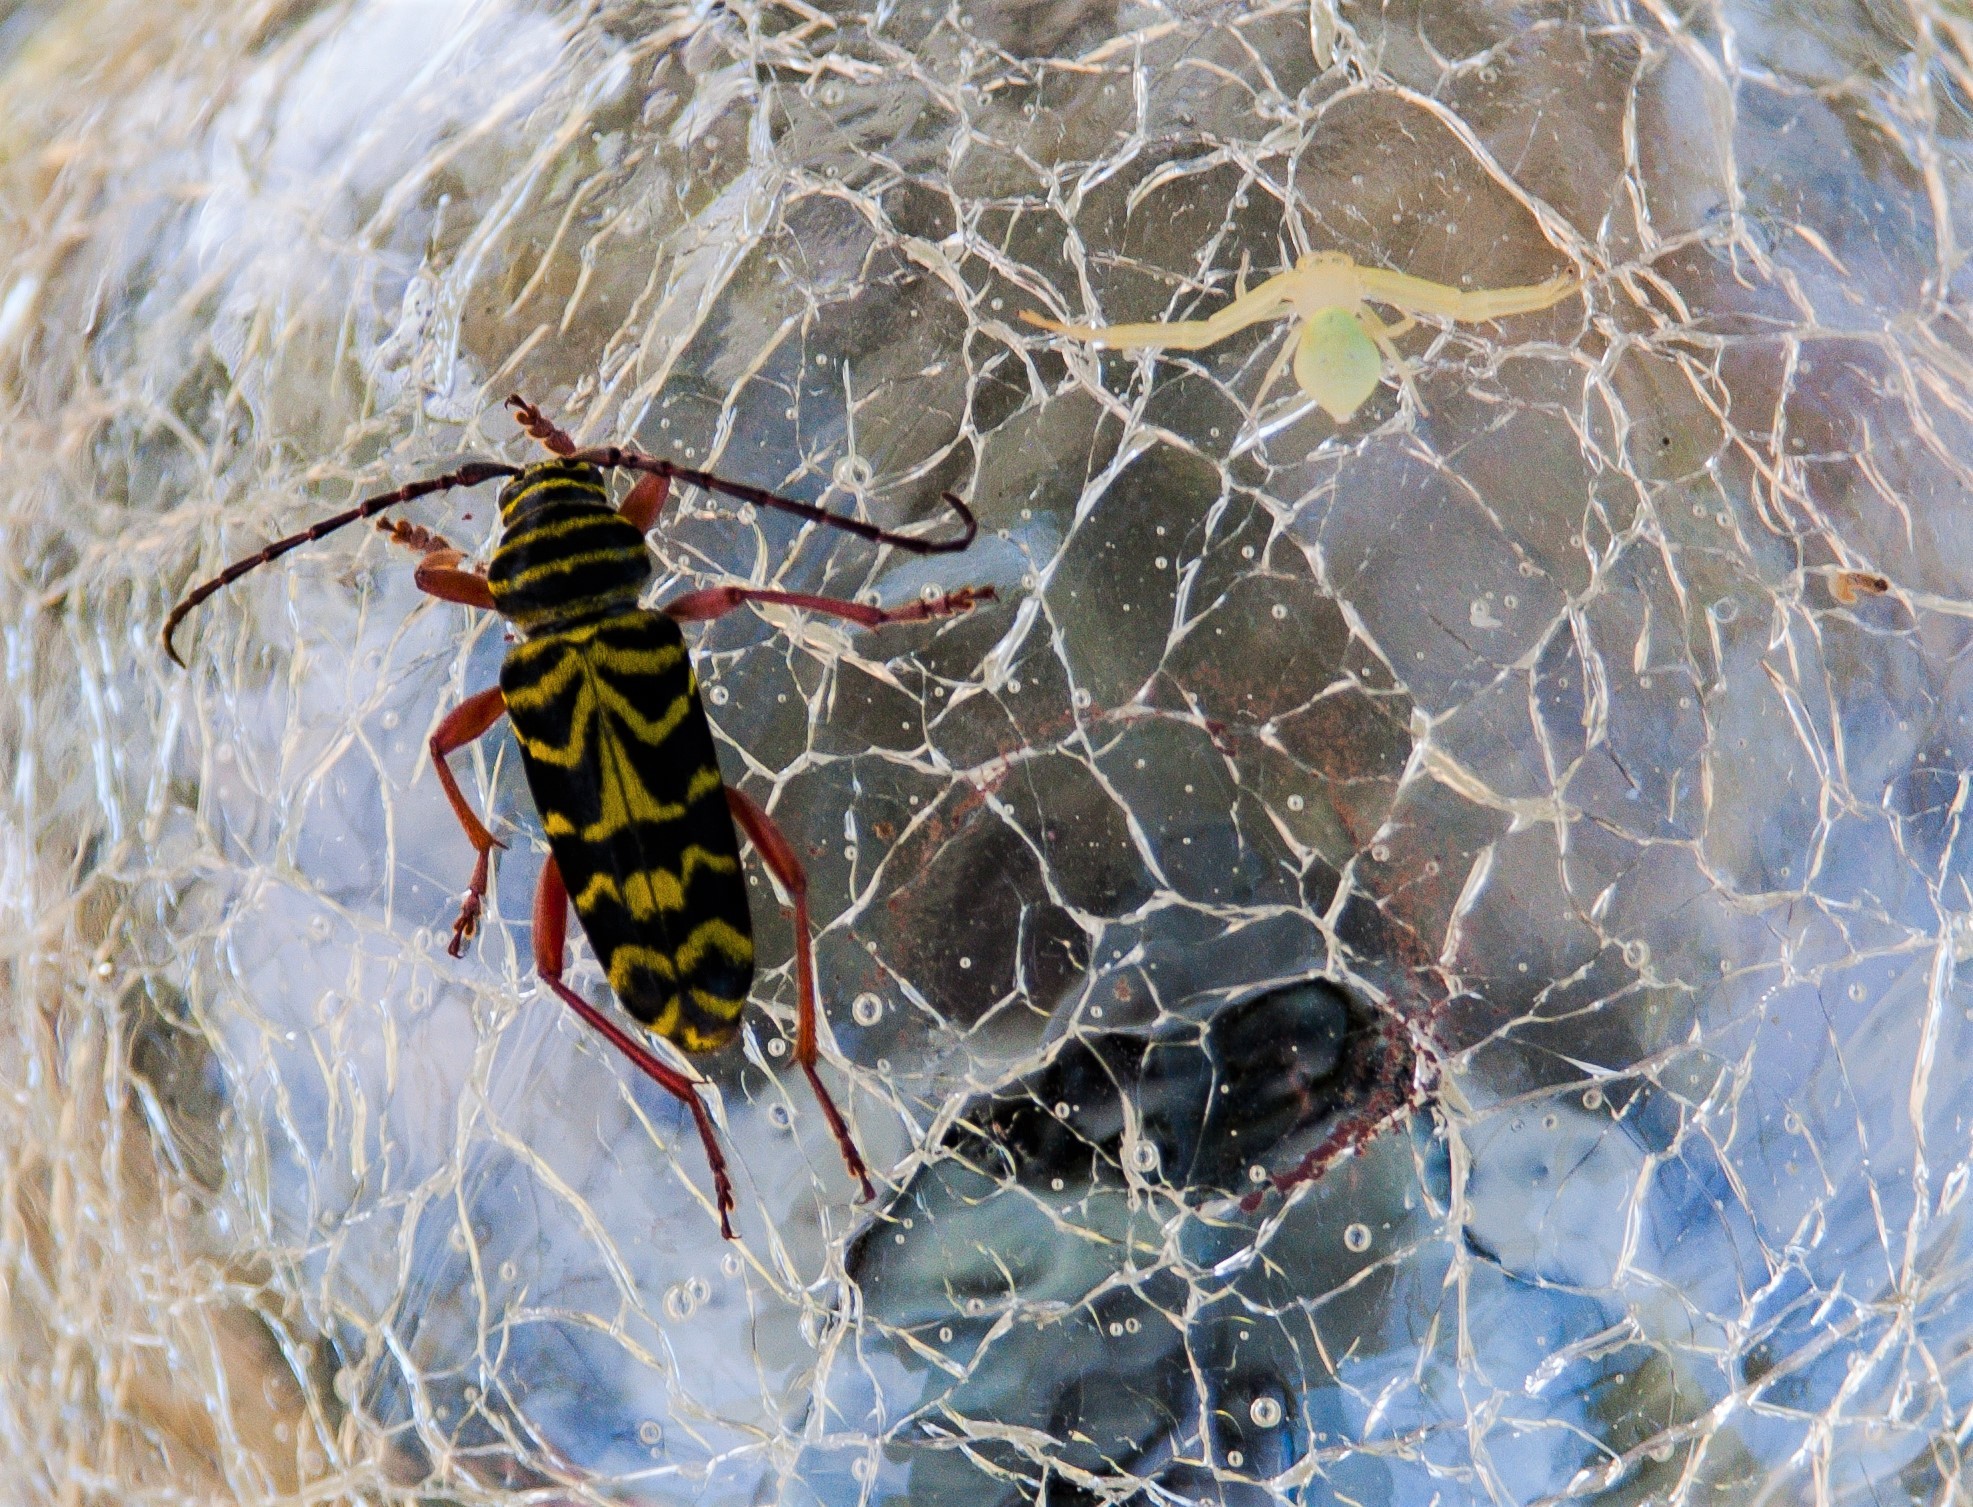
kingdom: Animalia
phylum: Arthropoda
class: Insecta
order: Coleoptera
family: Cerambycidae
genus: Megacyllene
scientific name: Megacyllene robiniae
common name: Locust borer
